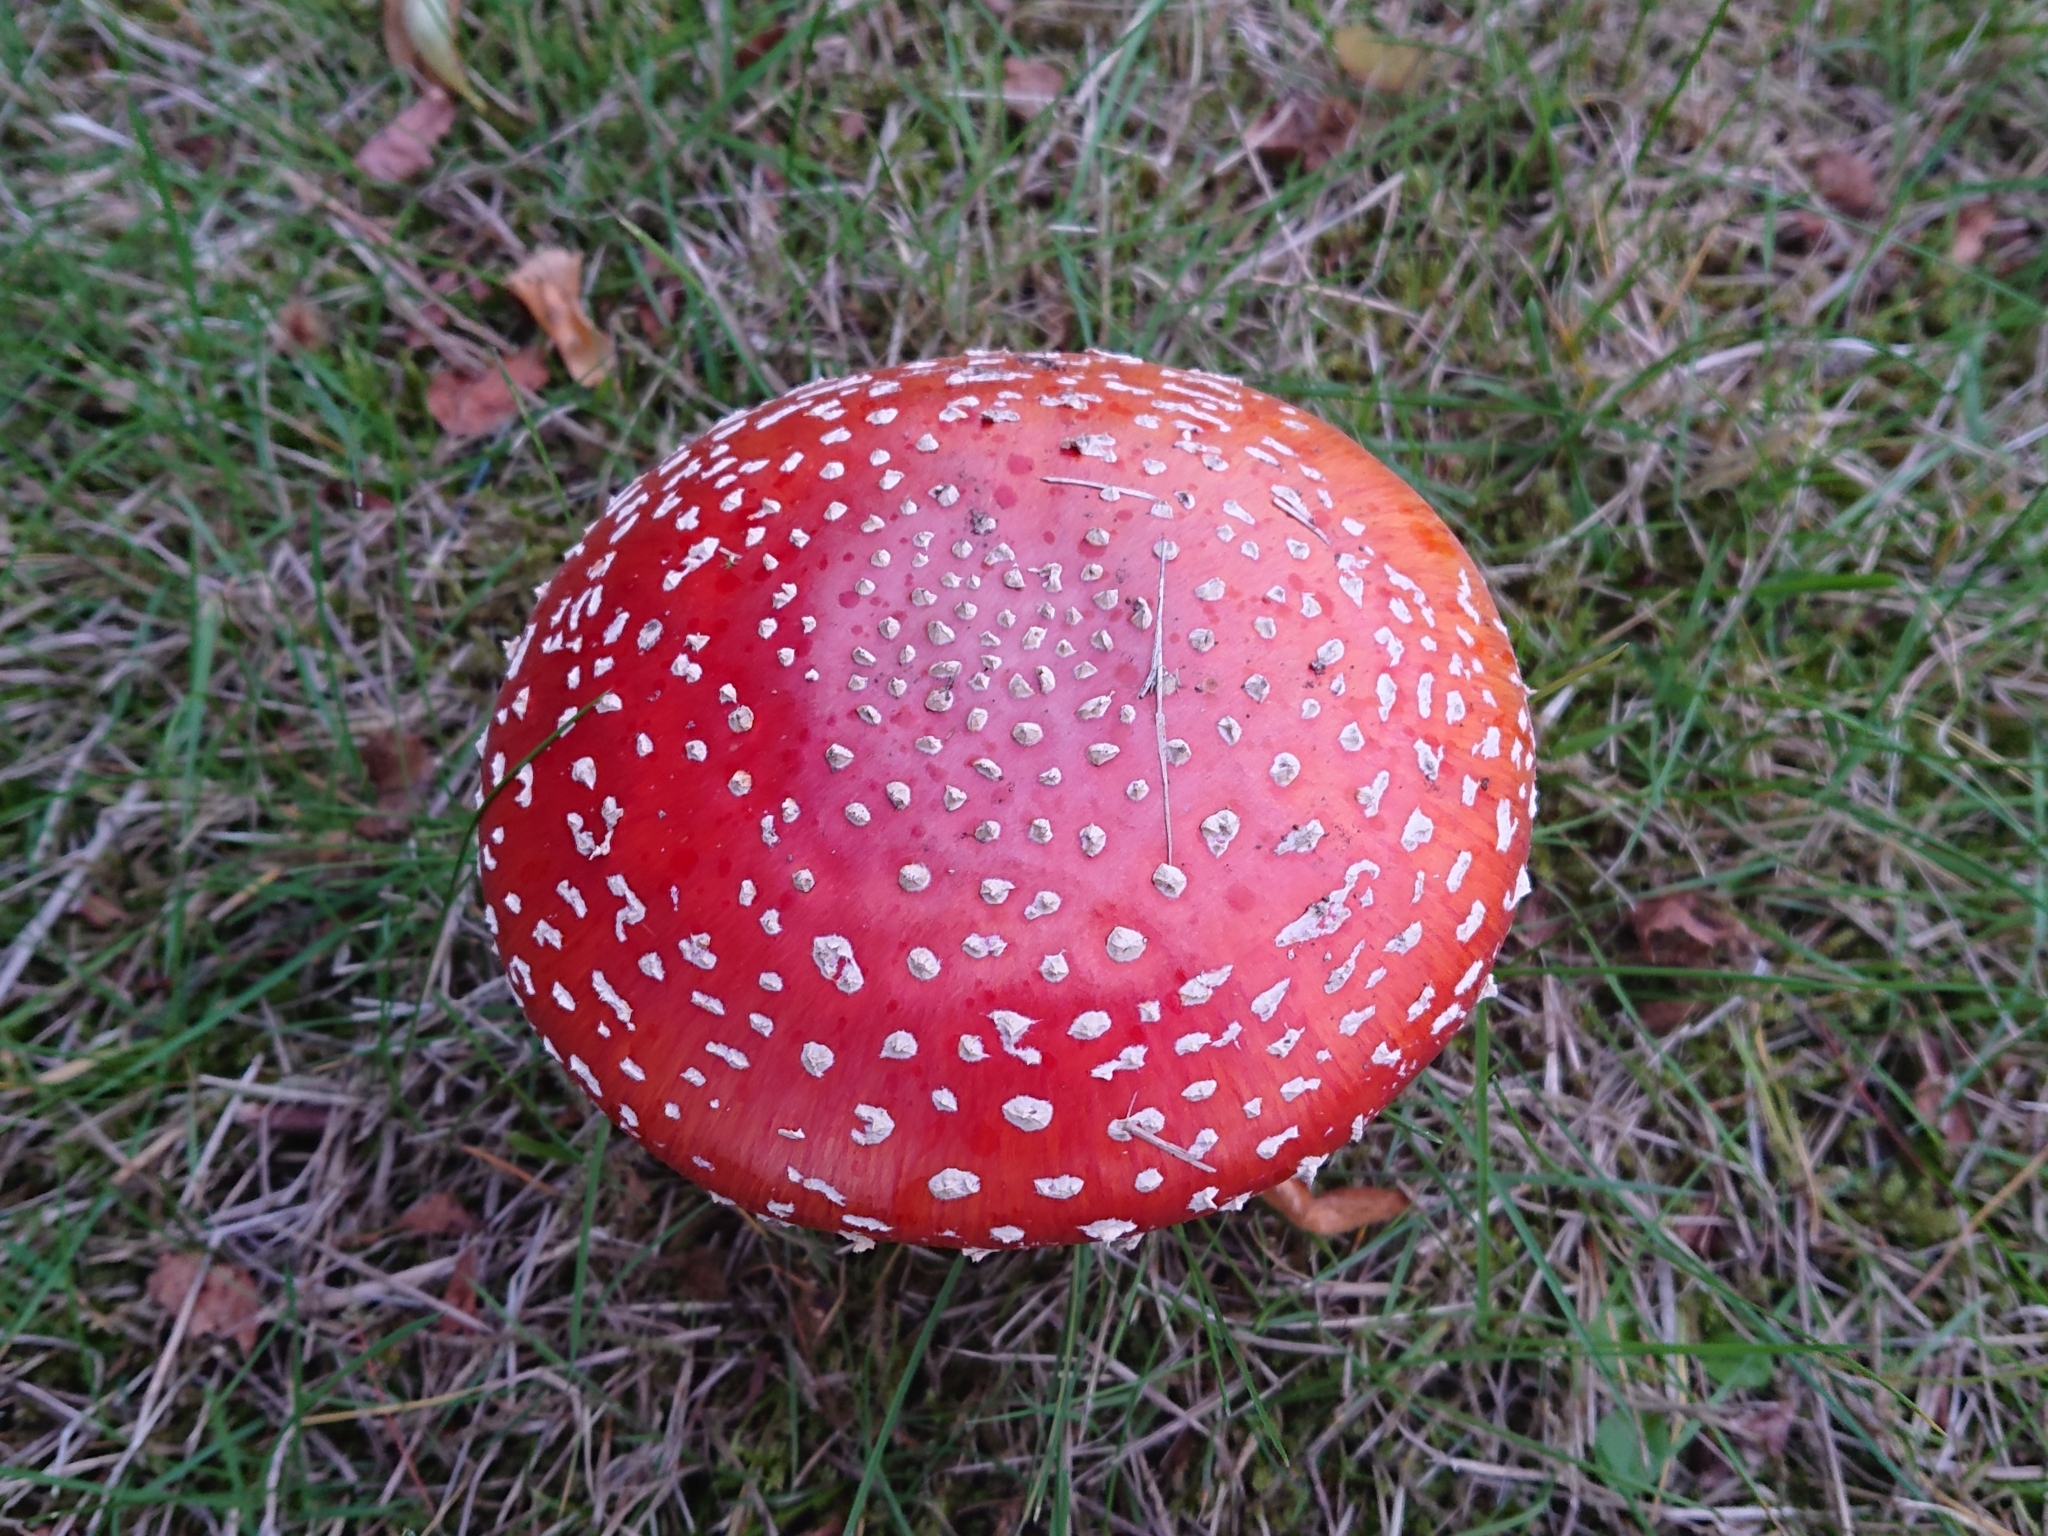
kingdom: Fungi
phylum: Basidiomycota
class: Agaricomycetes
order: Agaricales
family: Amanitaceae
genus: Amanita
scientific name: Amanita muscaria
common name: Fly agaric
